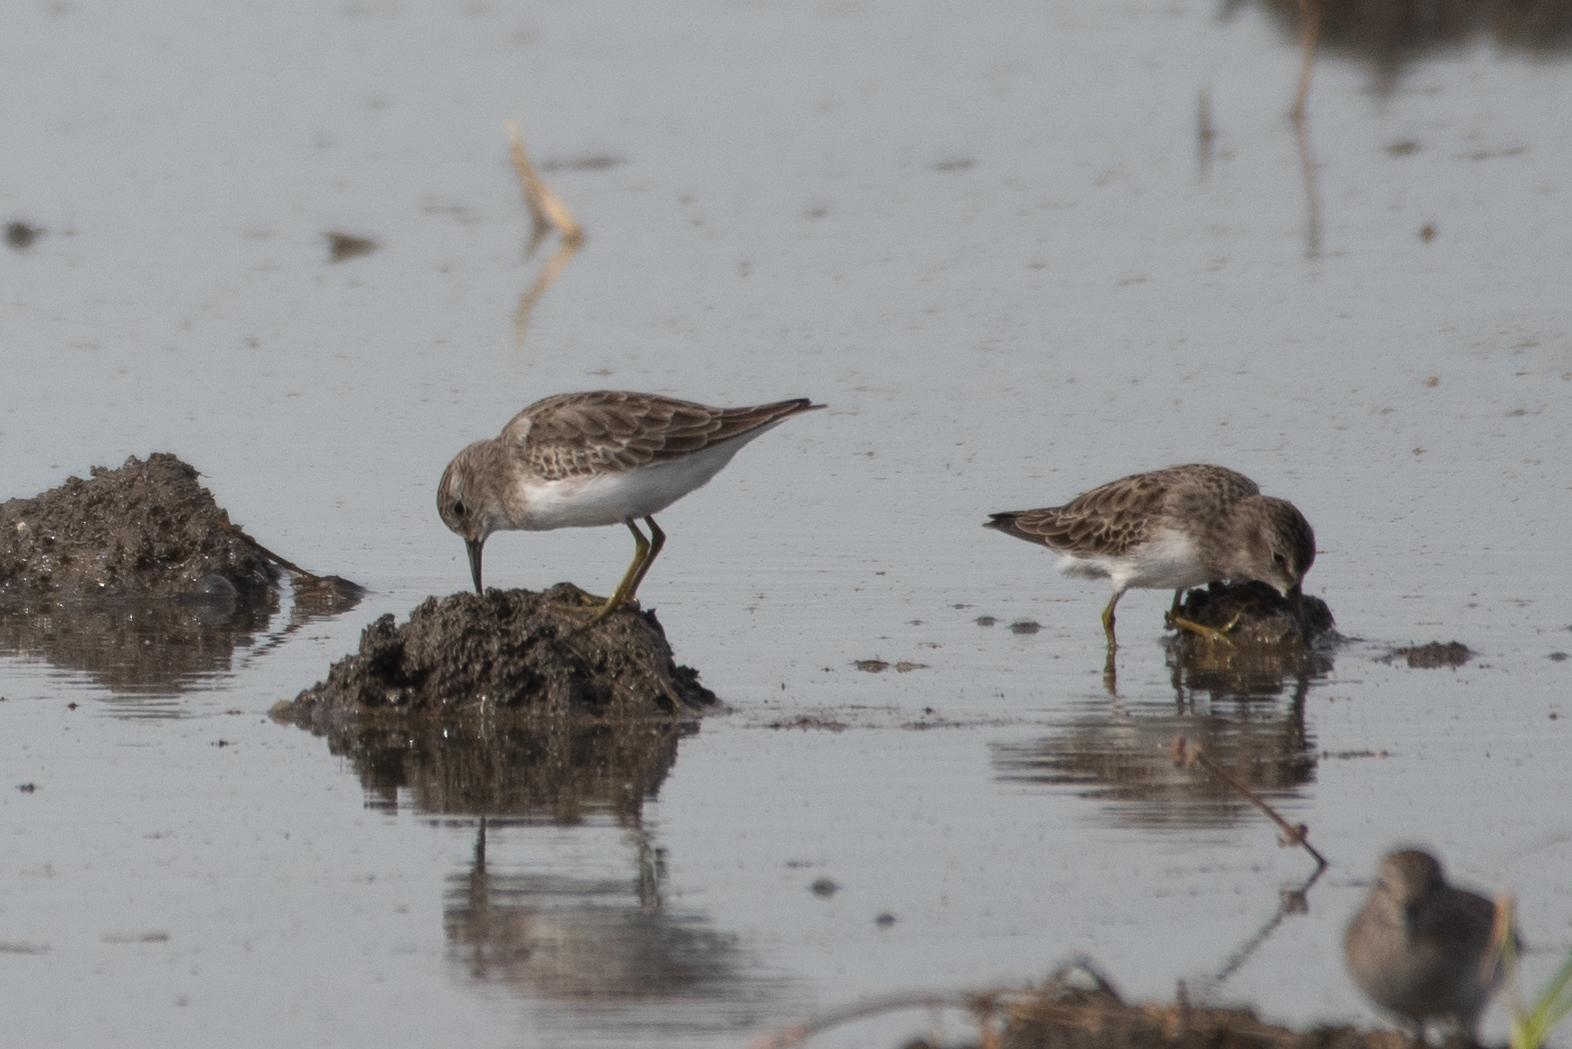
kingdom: Animalia
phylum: Chordata
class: Aves
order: Charadriiformes
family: Scolopacidae
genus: Calidris
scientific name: Calidris minutilla
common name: Least sandpiper
